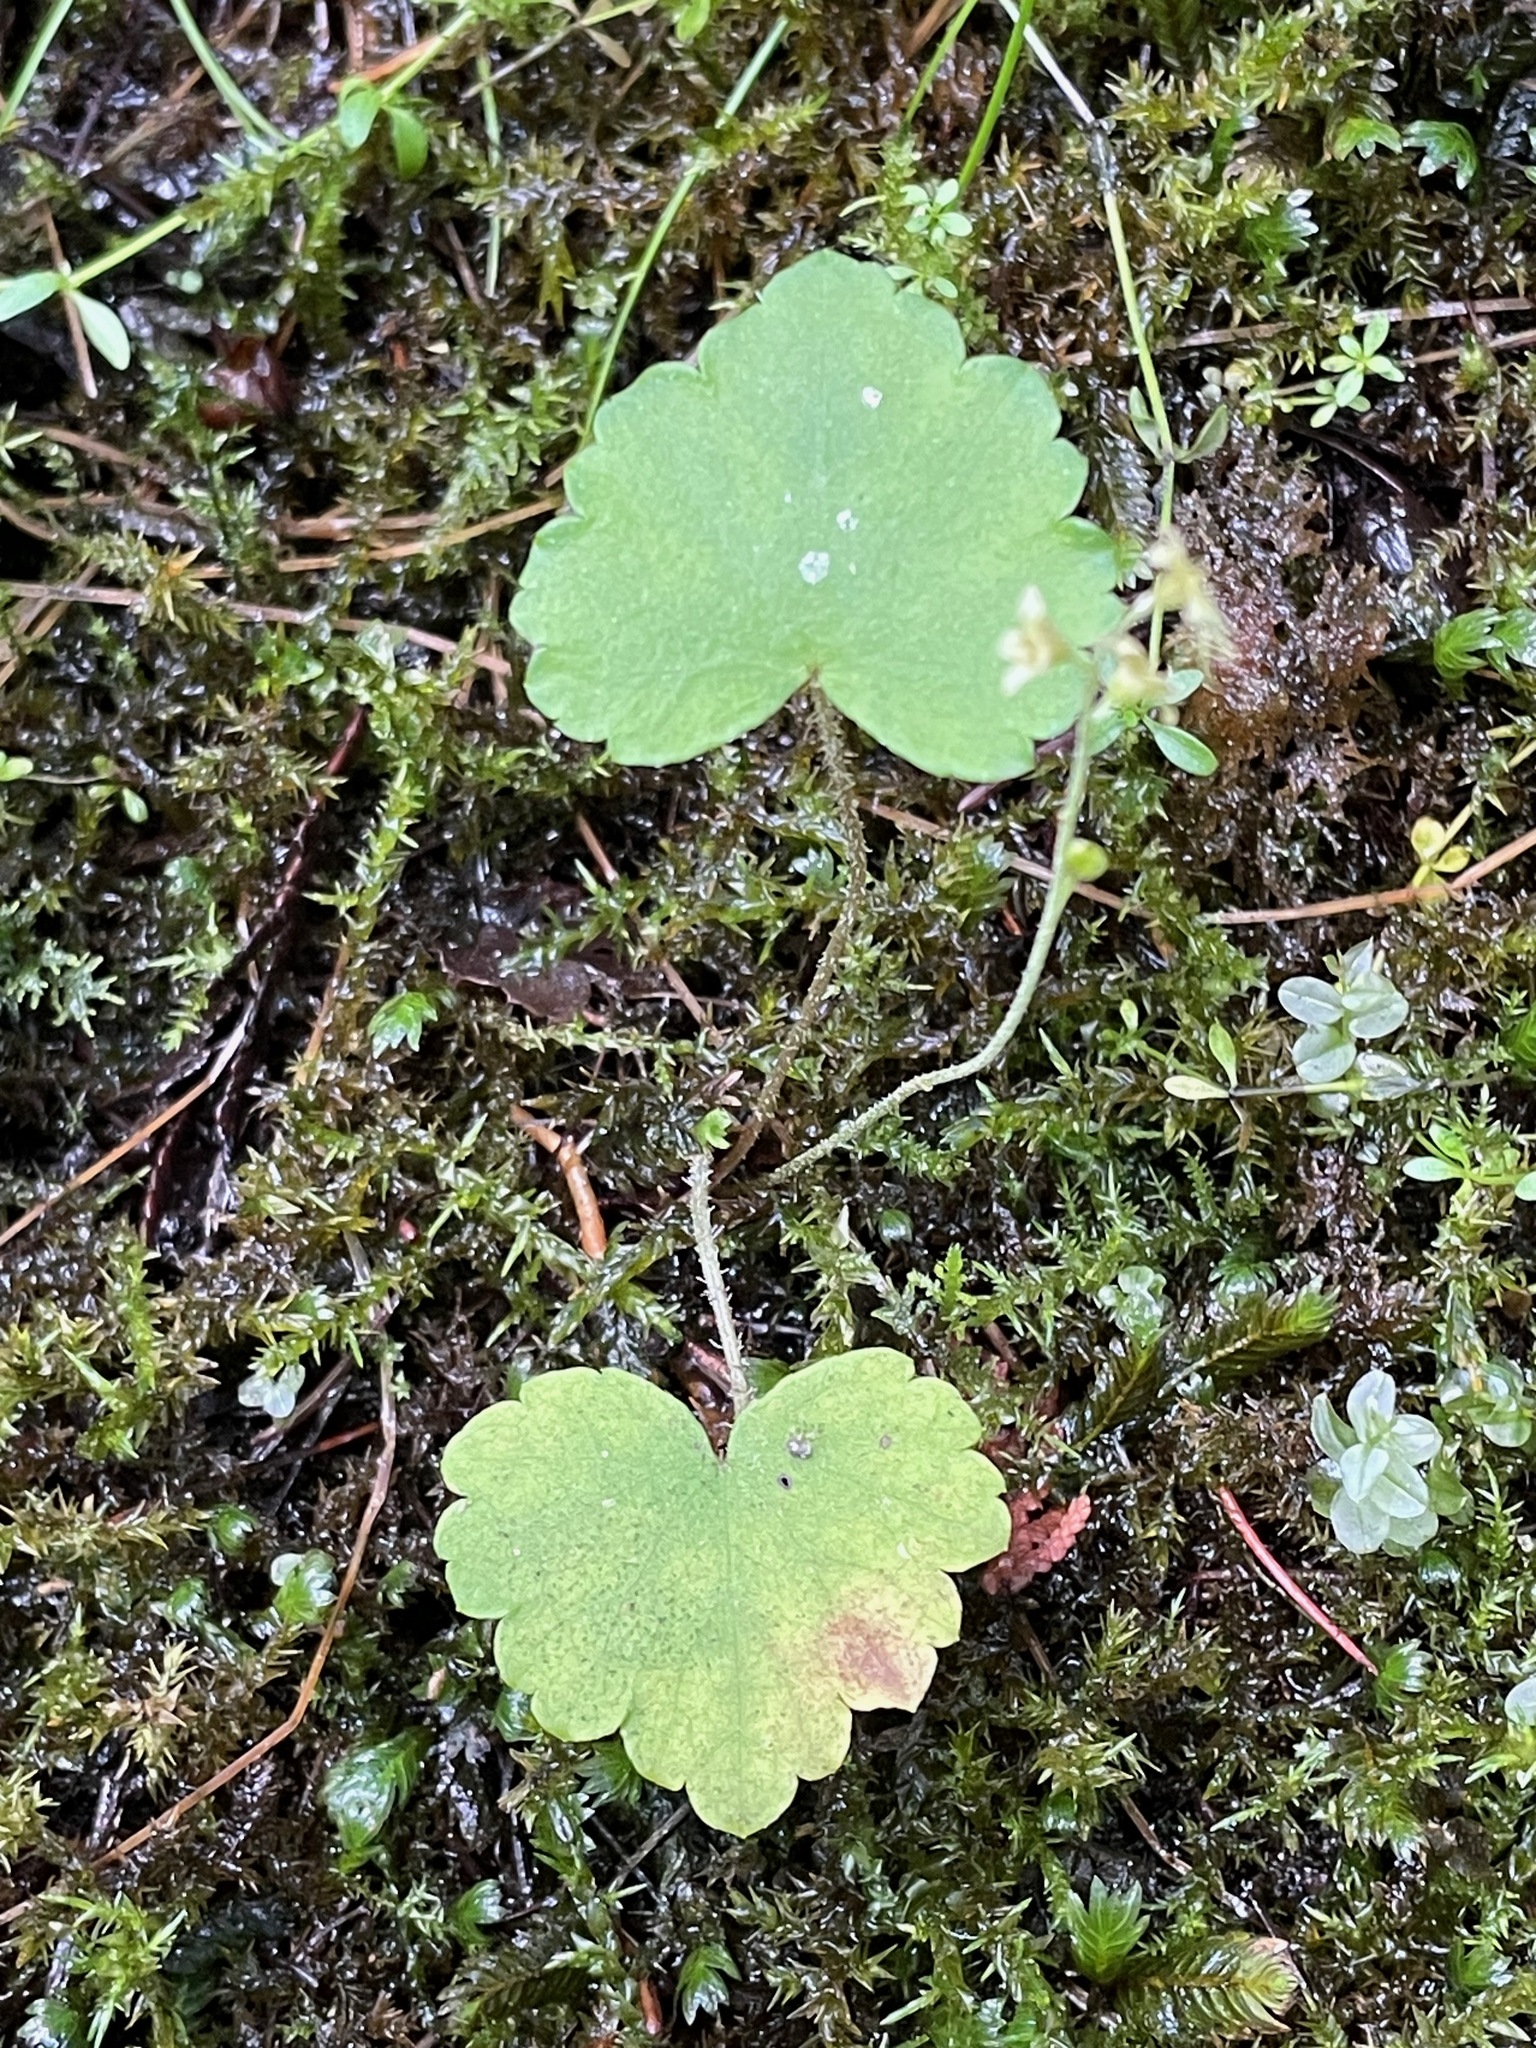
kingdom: Plantae
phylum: Tracheophyta
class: Magnoliopsida
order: Saxifragales
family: Saxifragaceae
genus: Mitella
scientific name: Mitella nuda
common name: Bare-stemmed bishop's-cap
